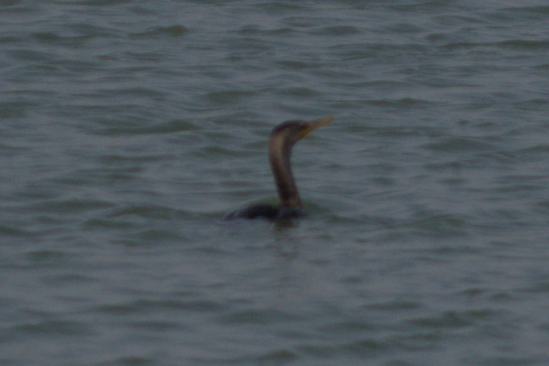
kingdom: Animalia
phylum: Chordata
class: Aves
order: Suliformes
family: Phalacrocoracidae
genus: Phalacrocorax
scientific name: Phalacrocorax auritus
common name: Double-crested cormorant
